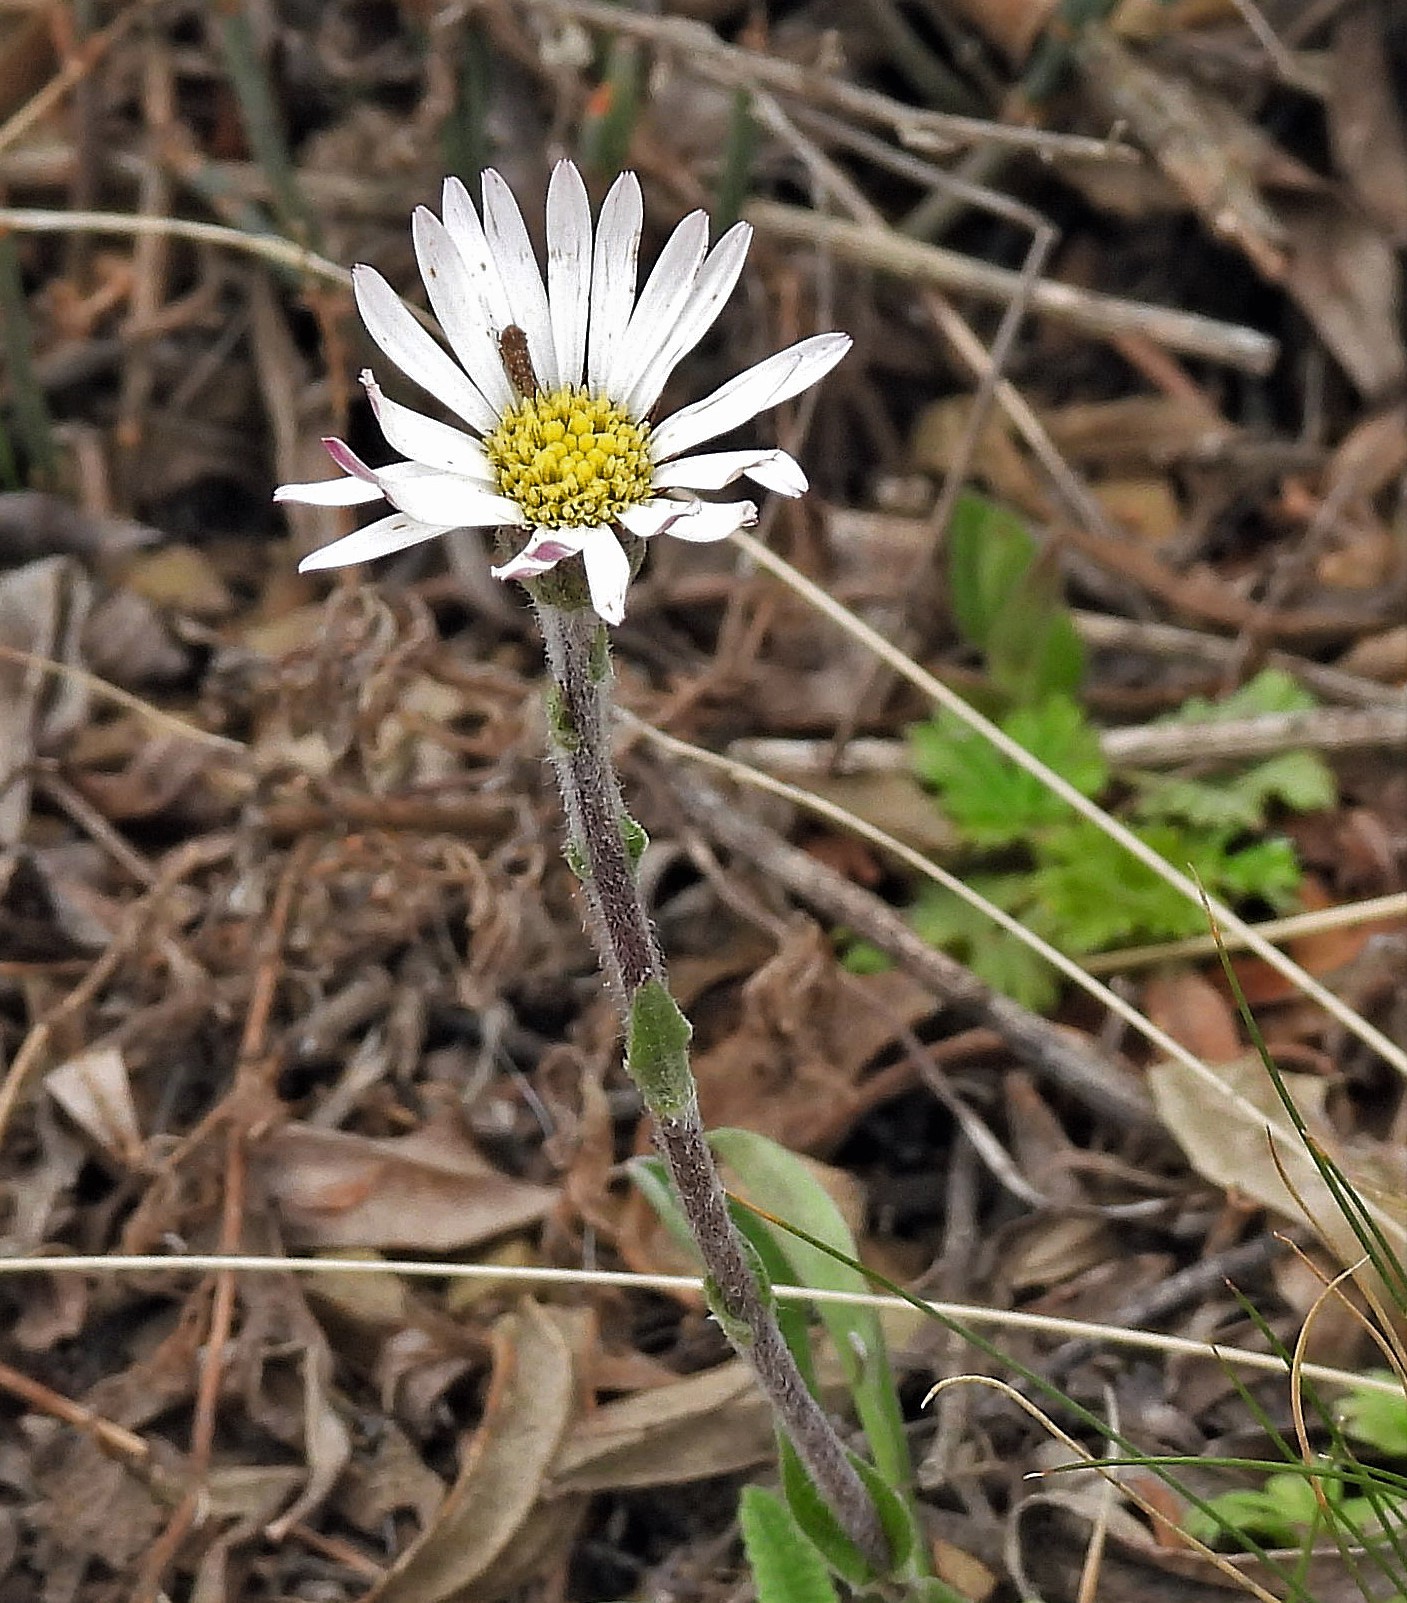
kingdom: Plantae
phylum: Tracheophyta
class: Magnoliopsida
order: Asterales
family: Asteraceae
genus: Noticastrum
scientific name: Noticastrum argenteum
